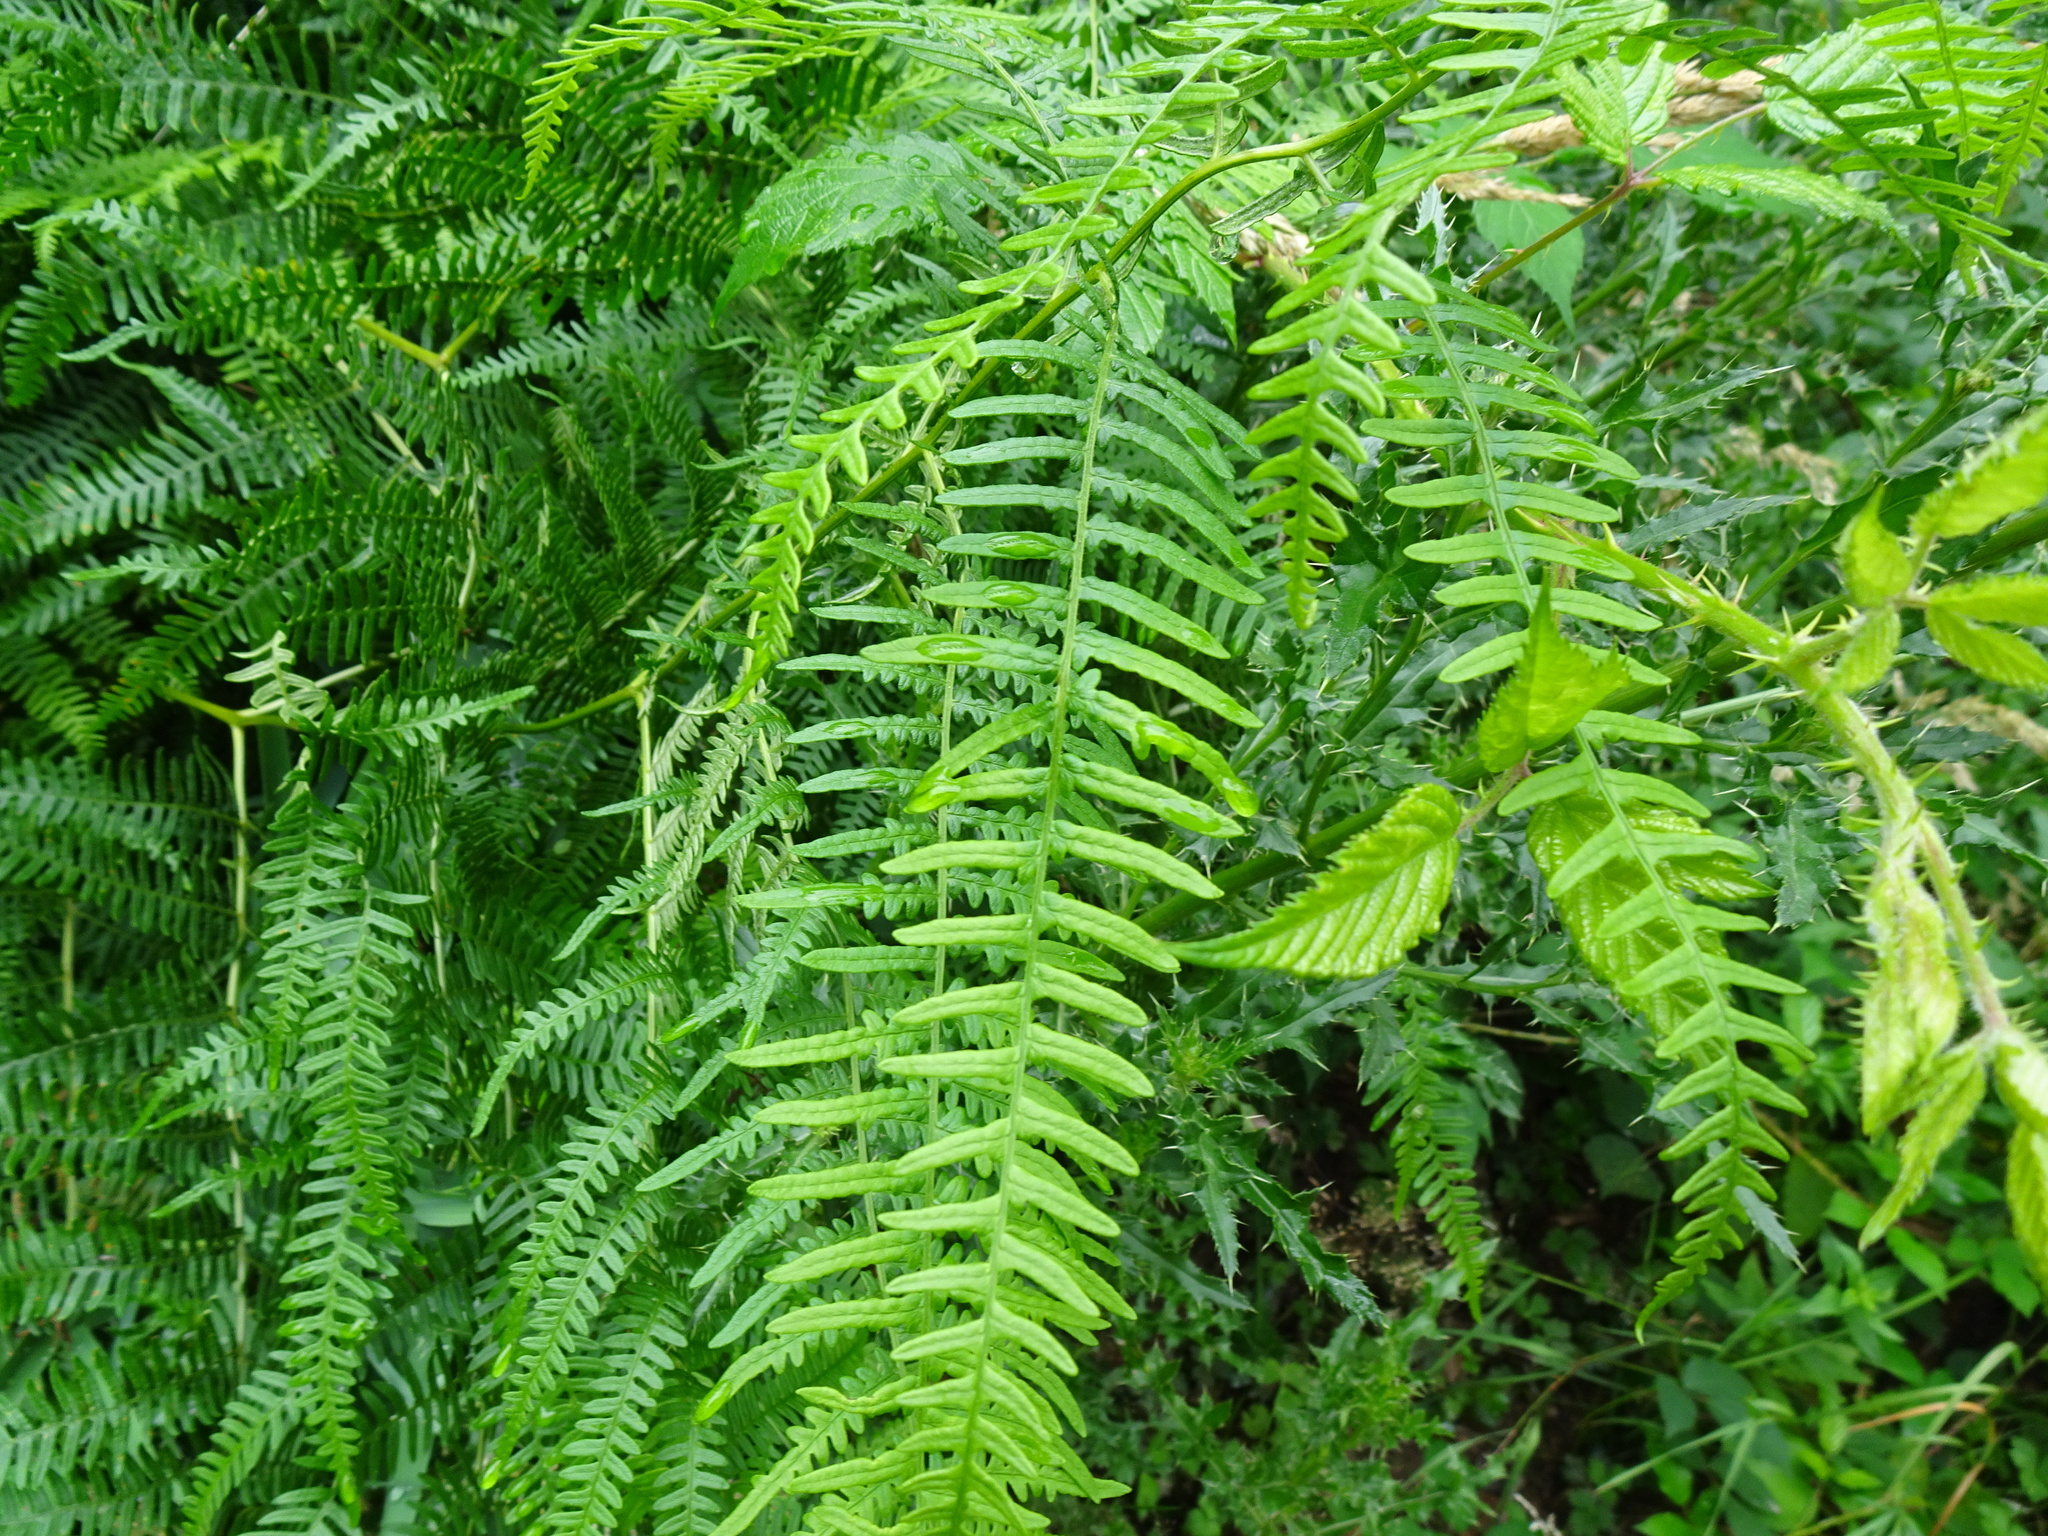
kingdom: Plantae
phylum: Tracheophyta
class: Polypodiopsida
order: Polypodiales
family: Dennstaedtiaceae
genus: Pteridium
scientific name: Pteridium aquilinum
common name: Bracken
